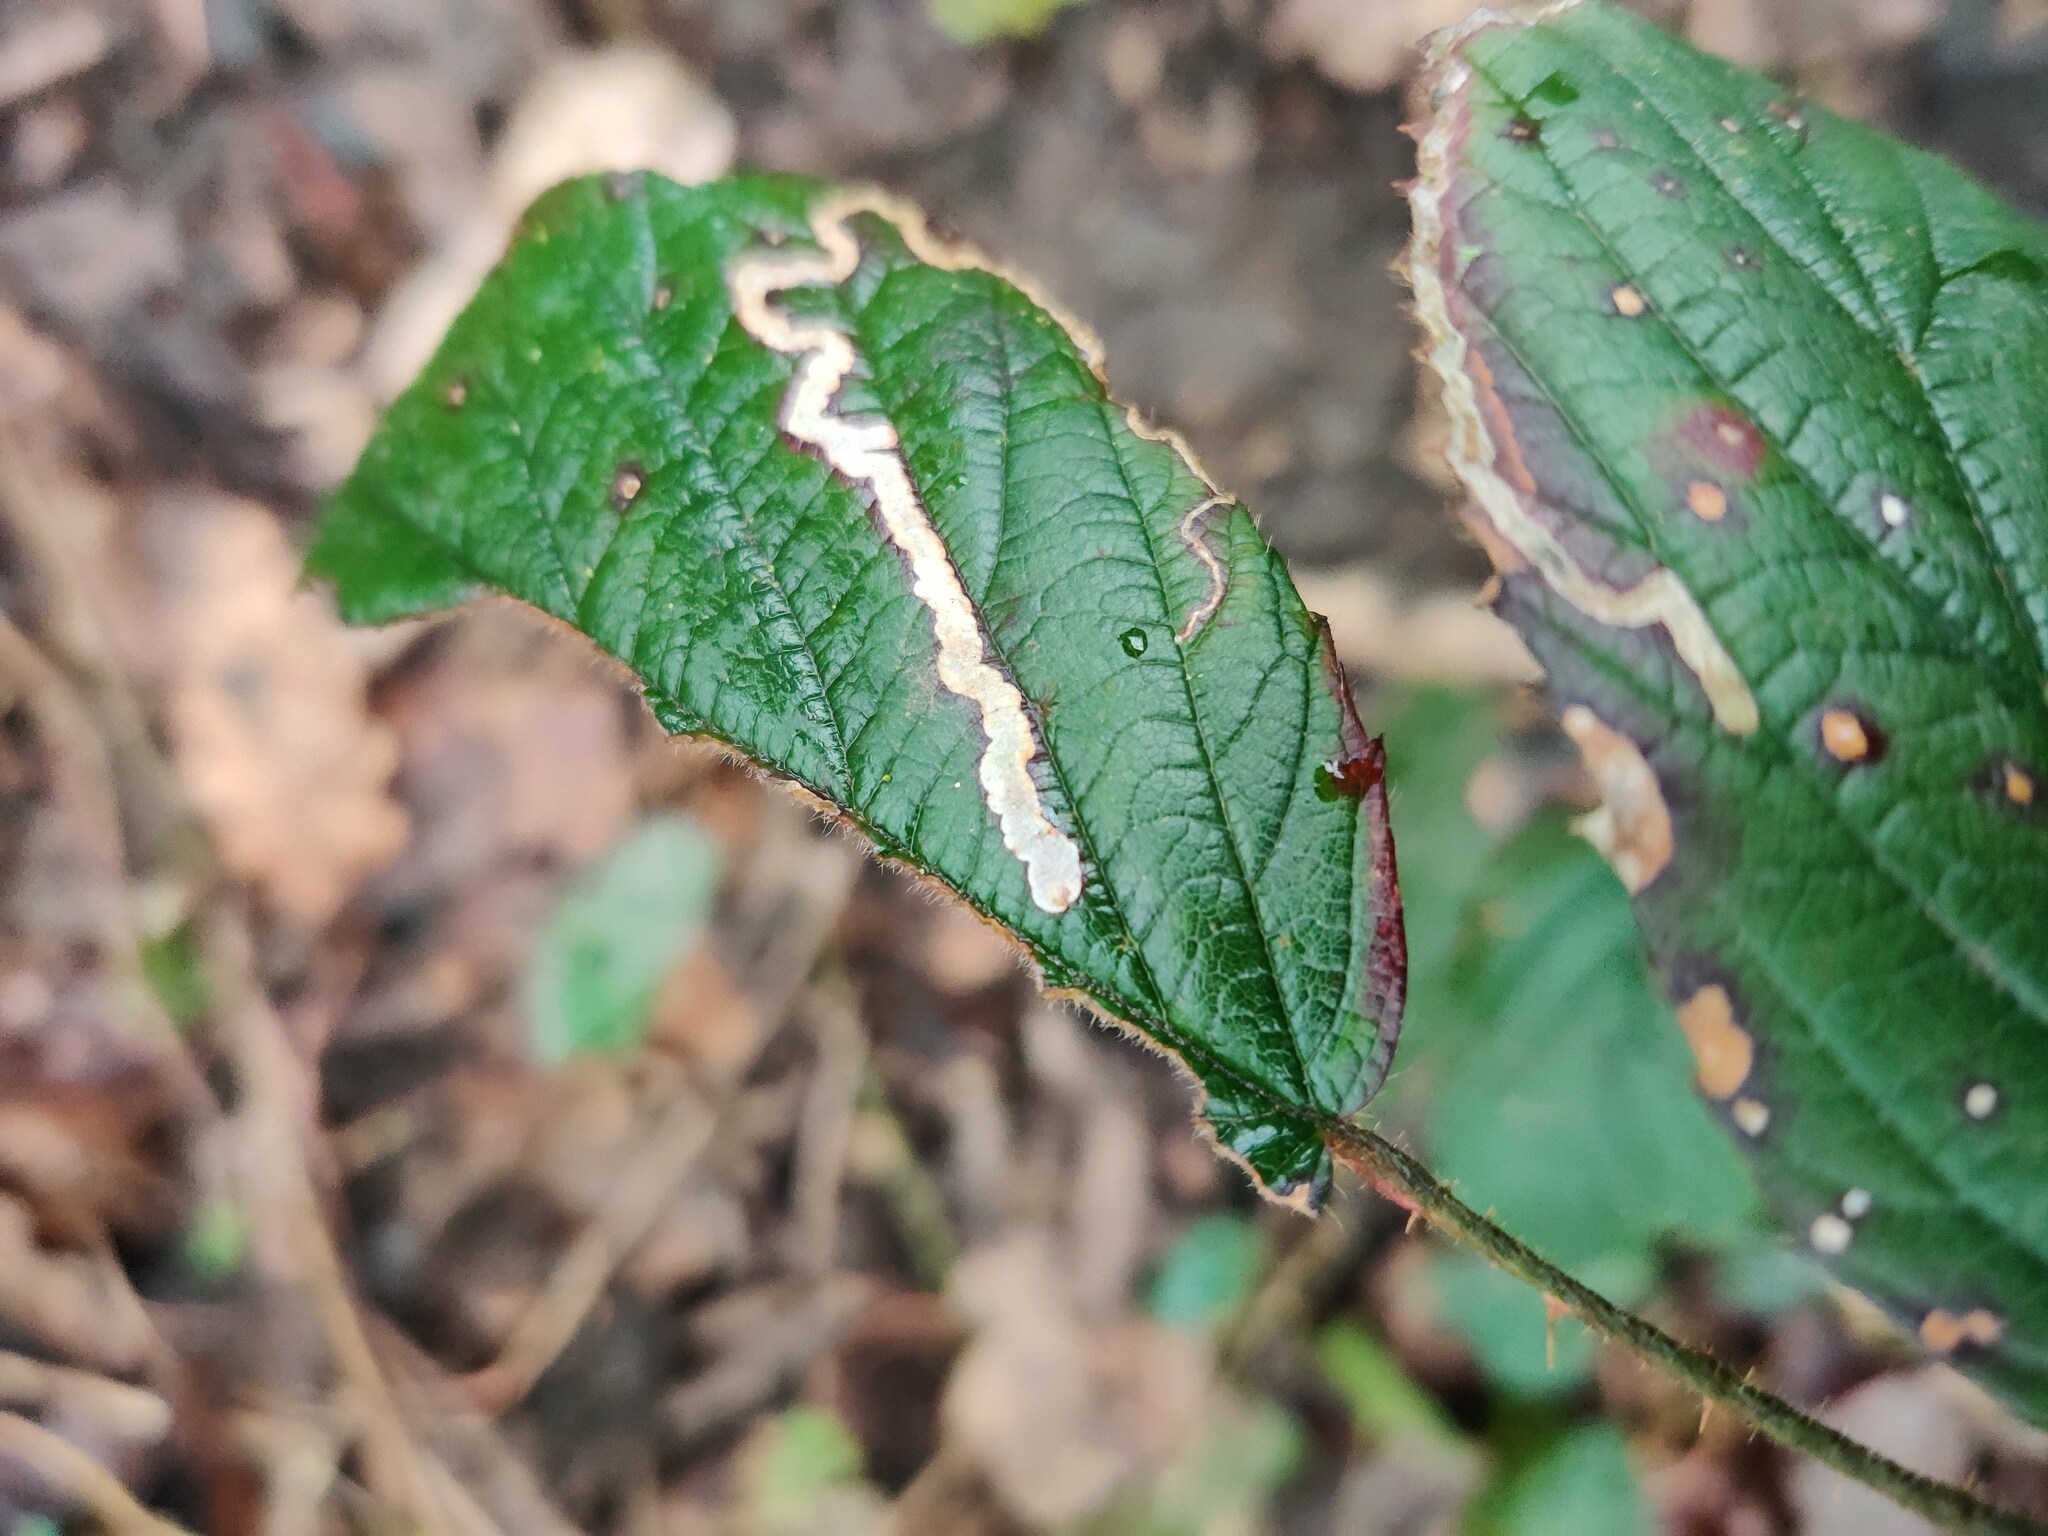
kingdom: Animalia
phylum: Arthropoda
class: Insecta
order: Lepidoptera
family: Nepticulidae
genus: Stigmella
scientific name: Stigmella aurella
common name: Golden pigmy
